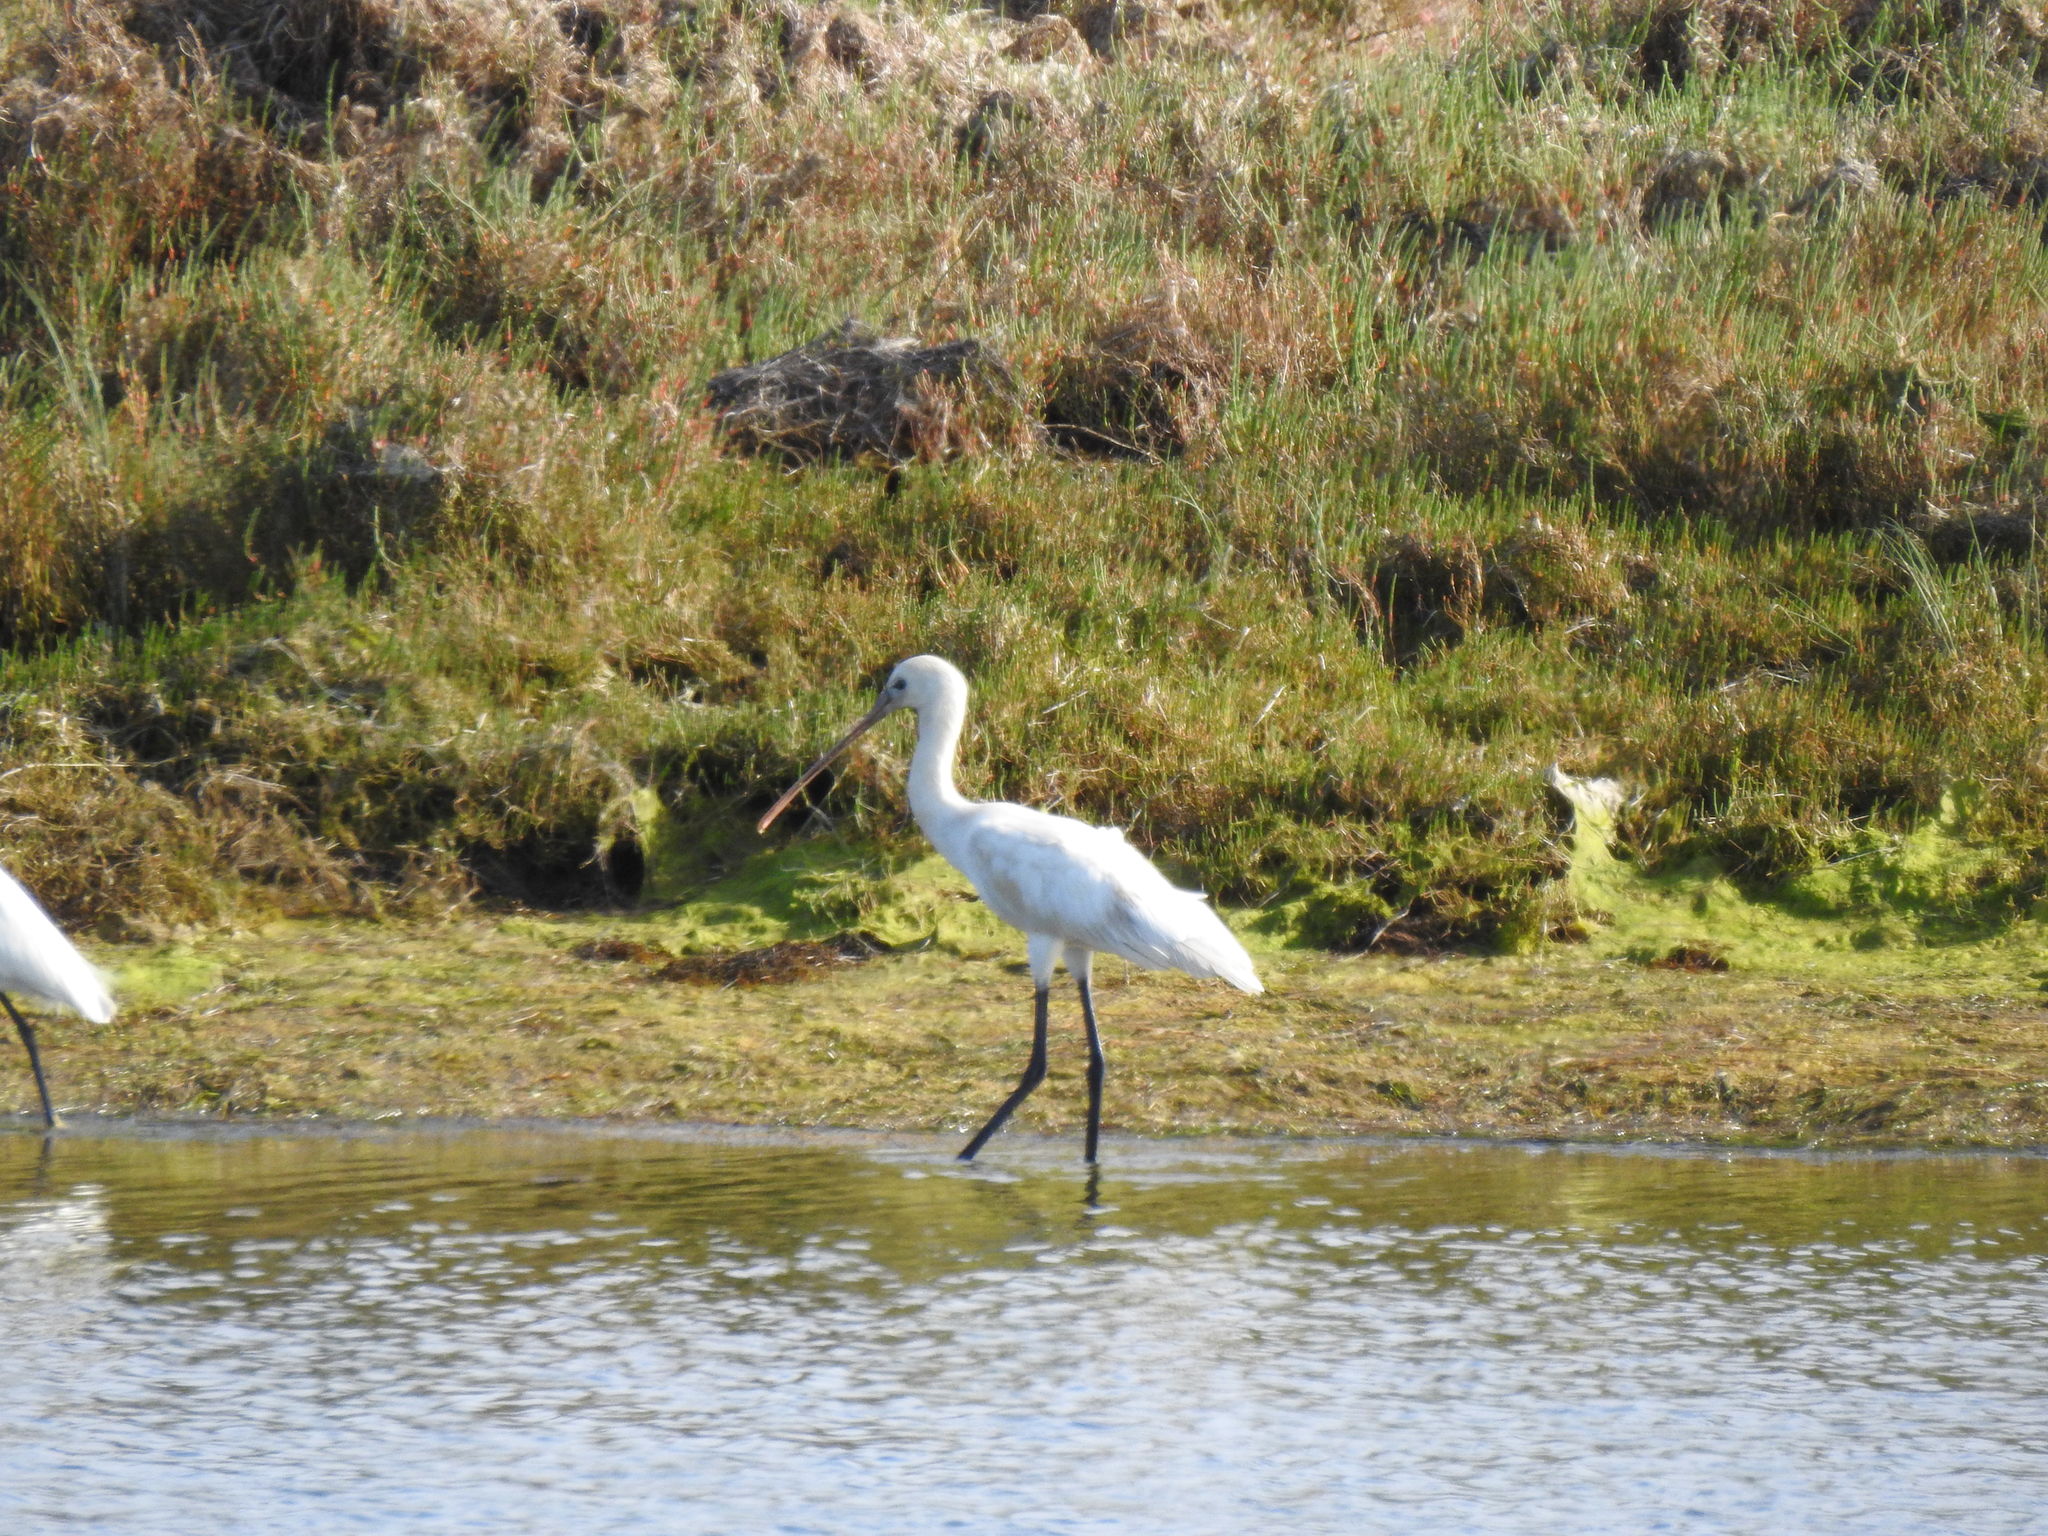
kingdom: Animalia
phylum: Chordata
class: Aves
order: Pelecaniformes
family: Threskiornithidae
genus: Platalea
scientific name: Platalea leucorodia
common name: Eurasian spoonbill
